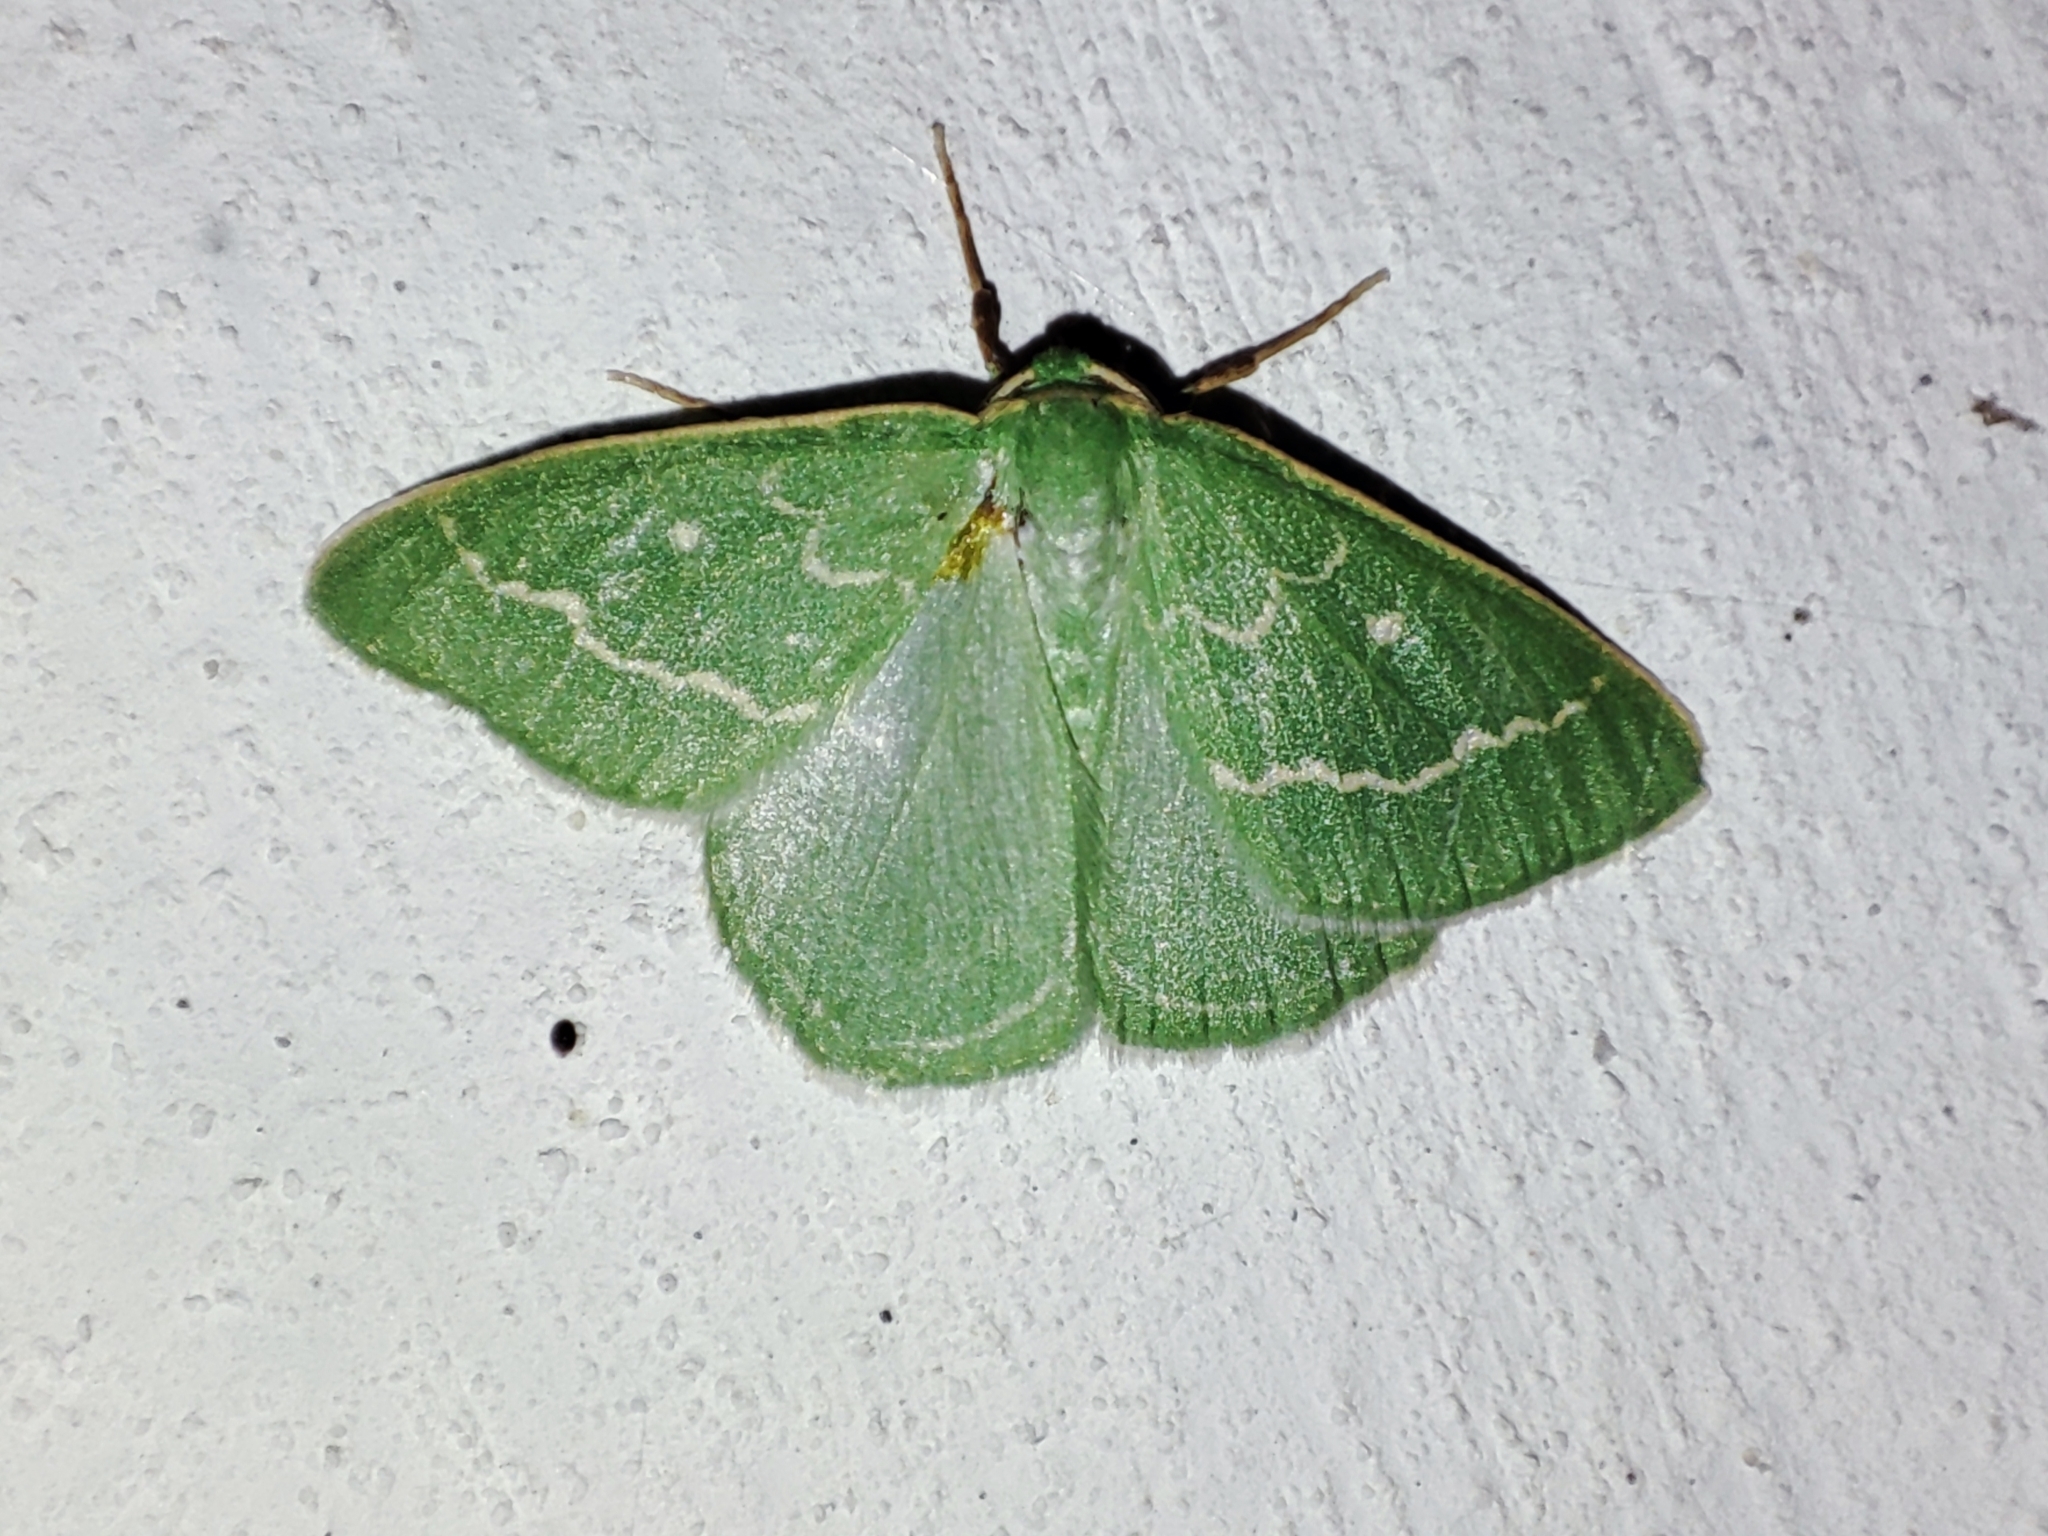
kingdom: Animalia
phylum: Arthropoda
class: Insecta
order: Lepidoptera
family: Geometridae
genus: Thetidia
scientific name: Thetidia smaragdaria
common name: Essex emerald
